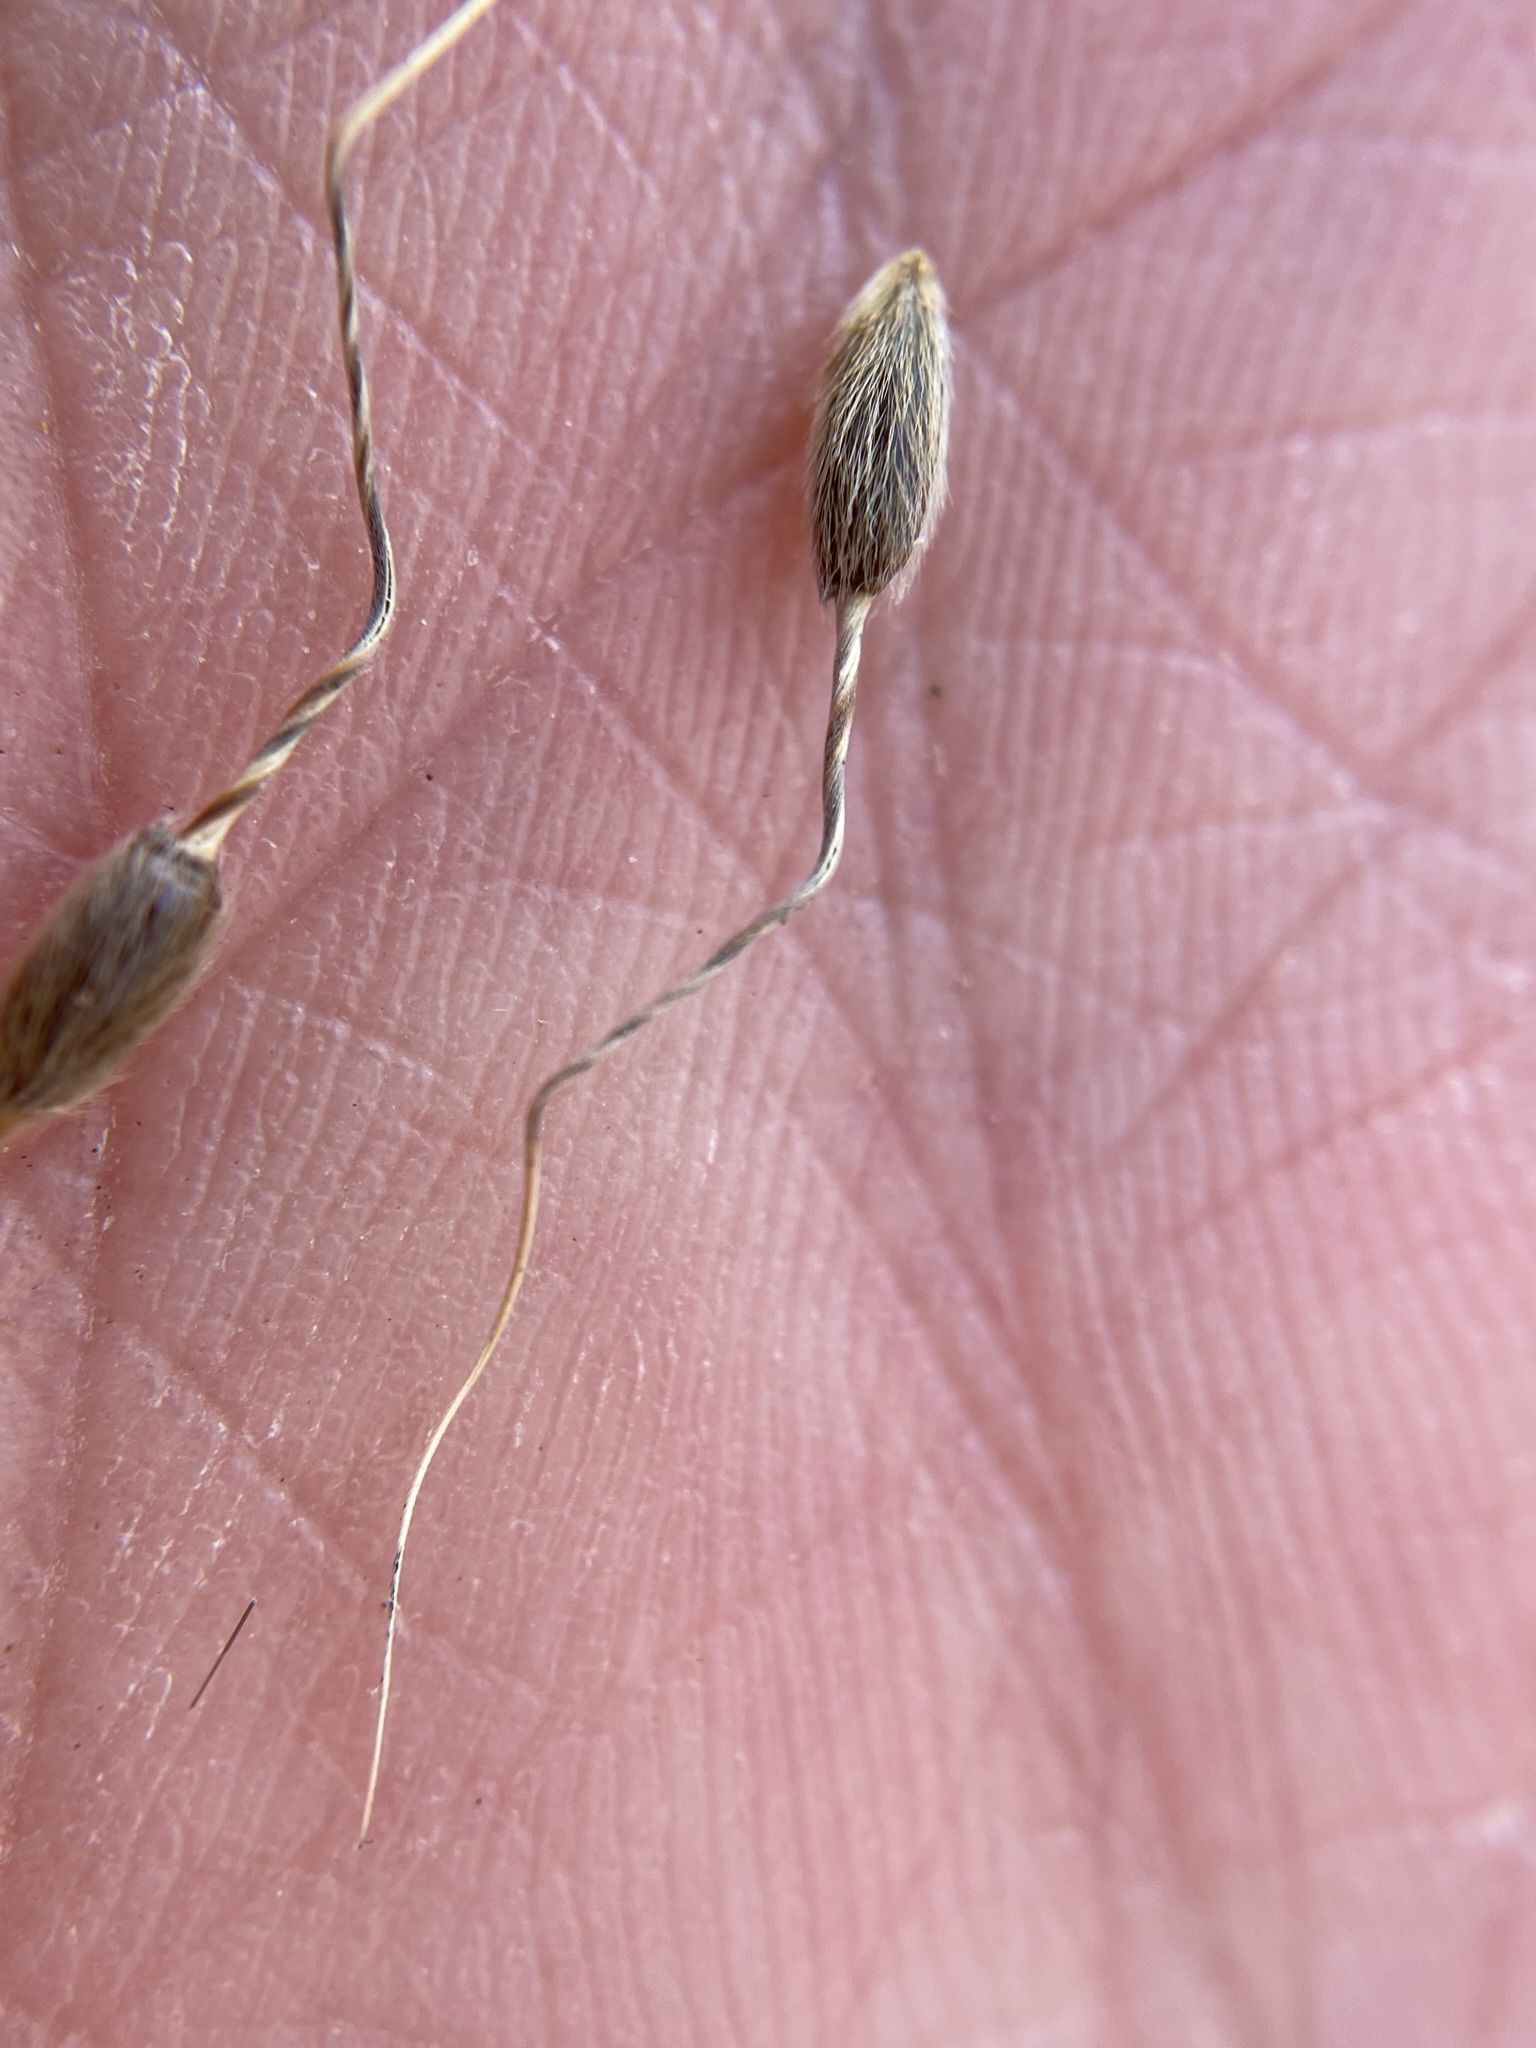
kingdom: Plantae
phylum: Tracheophyta
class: Liliopsida
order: Poales
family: Poaceae
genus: Piptochaetium
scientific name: Piptochaetium fimbriatum
